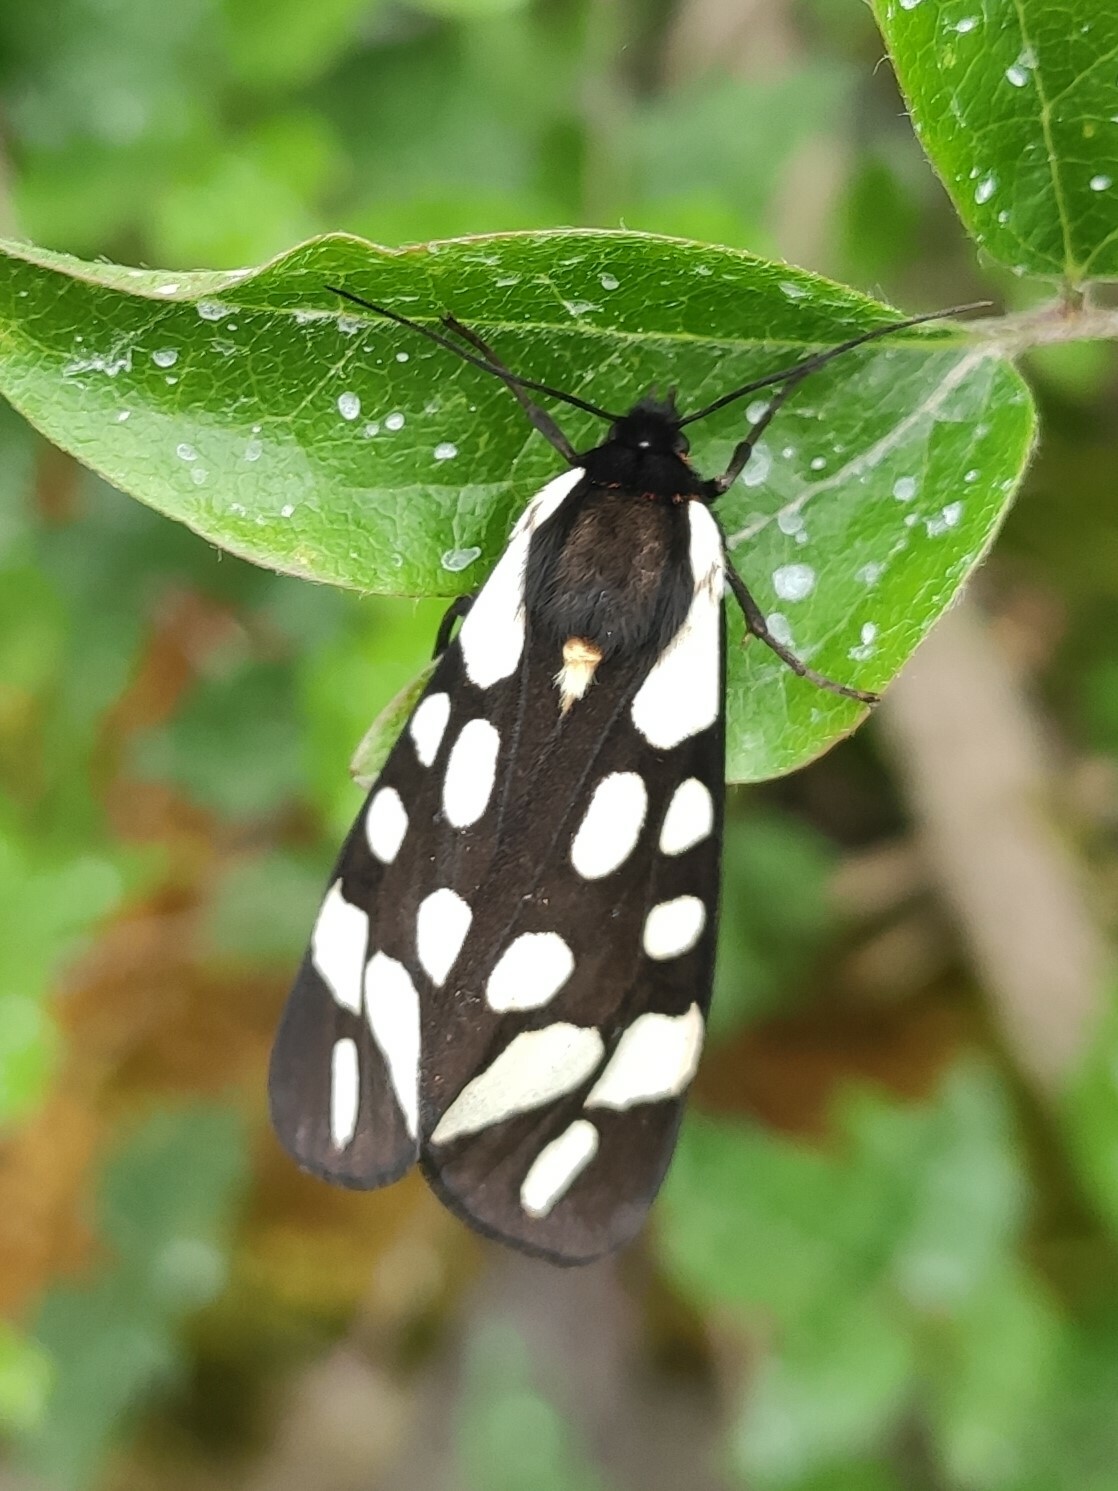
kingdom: Animalia
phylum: Arthropoda
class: Insecta
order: Lepidoptera
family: Erebidae
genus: Epicallia
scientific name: Epicallia villica
